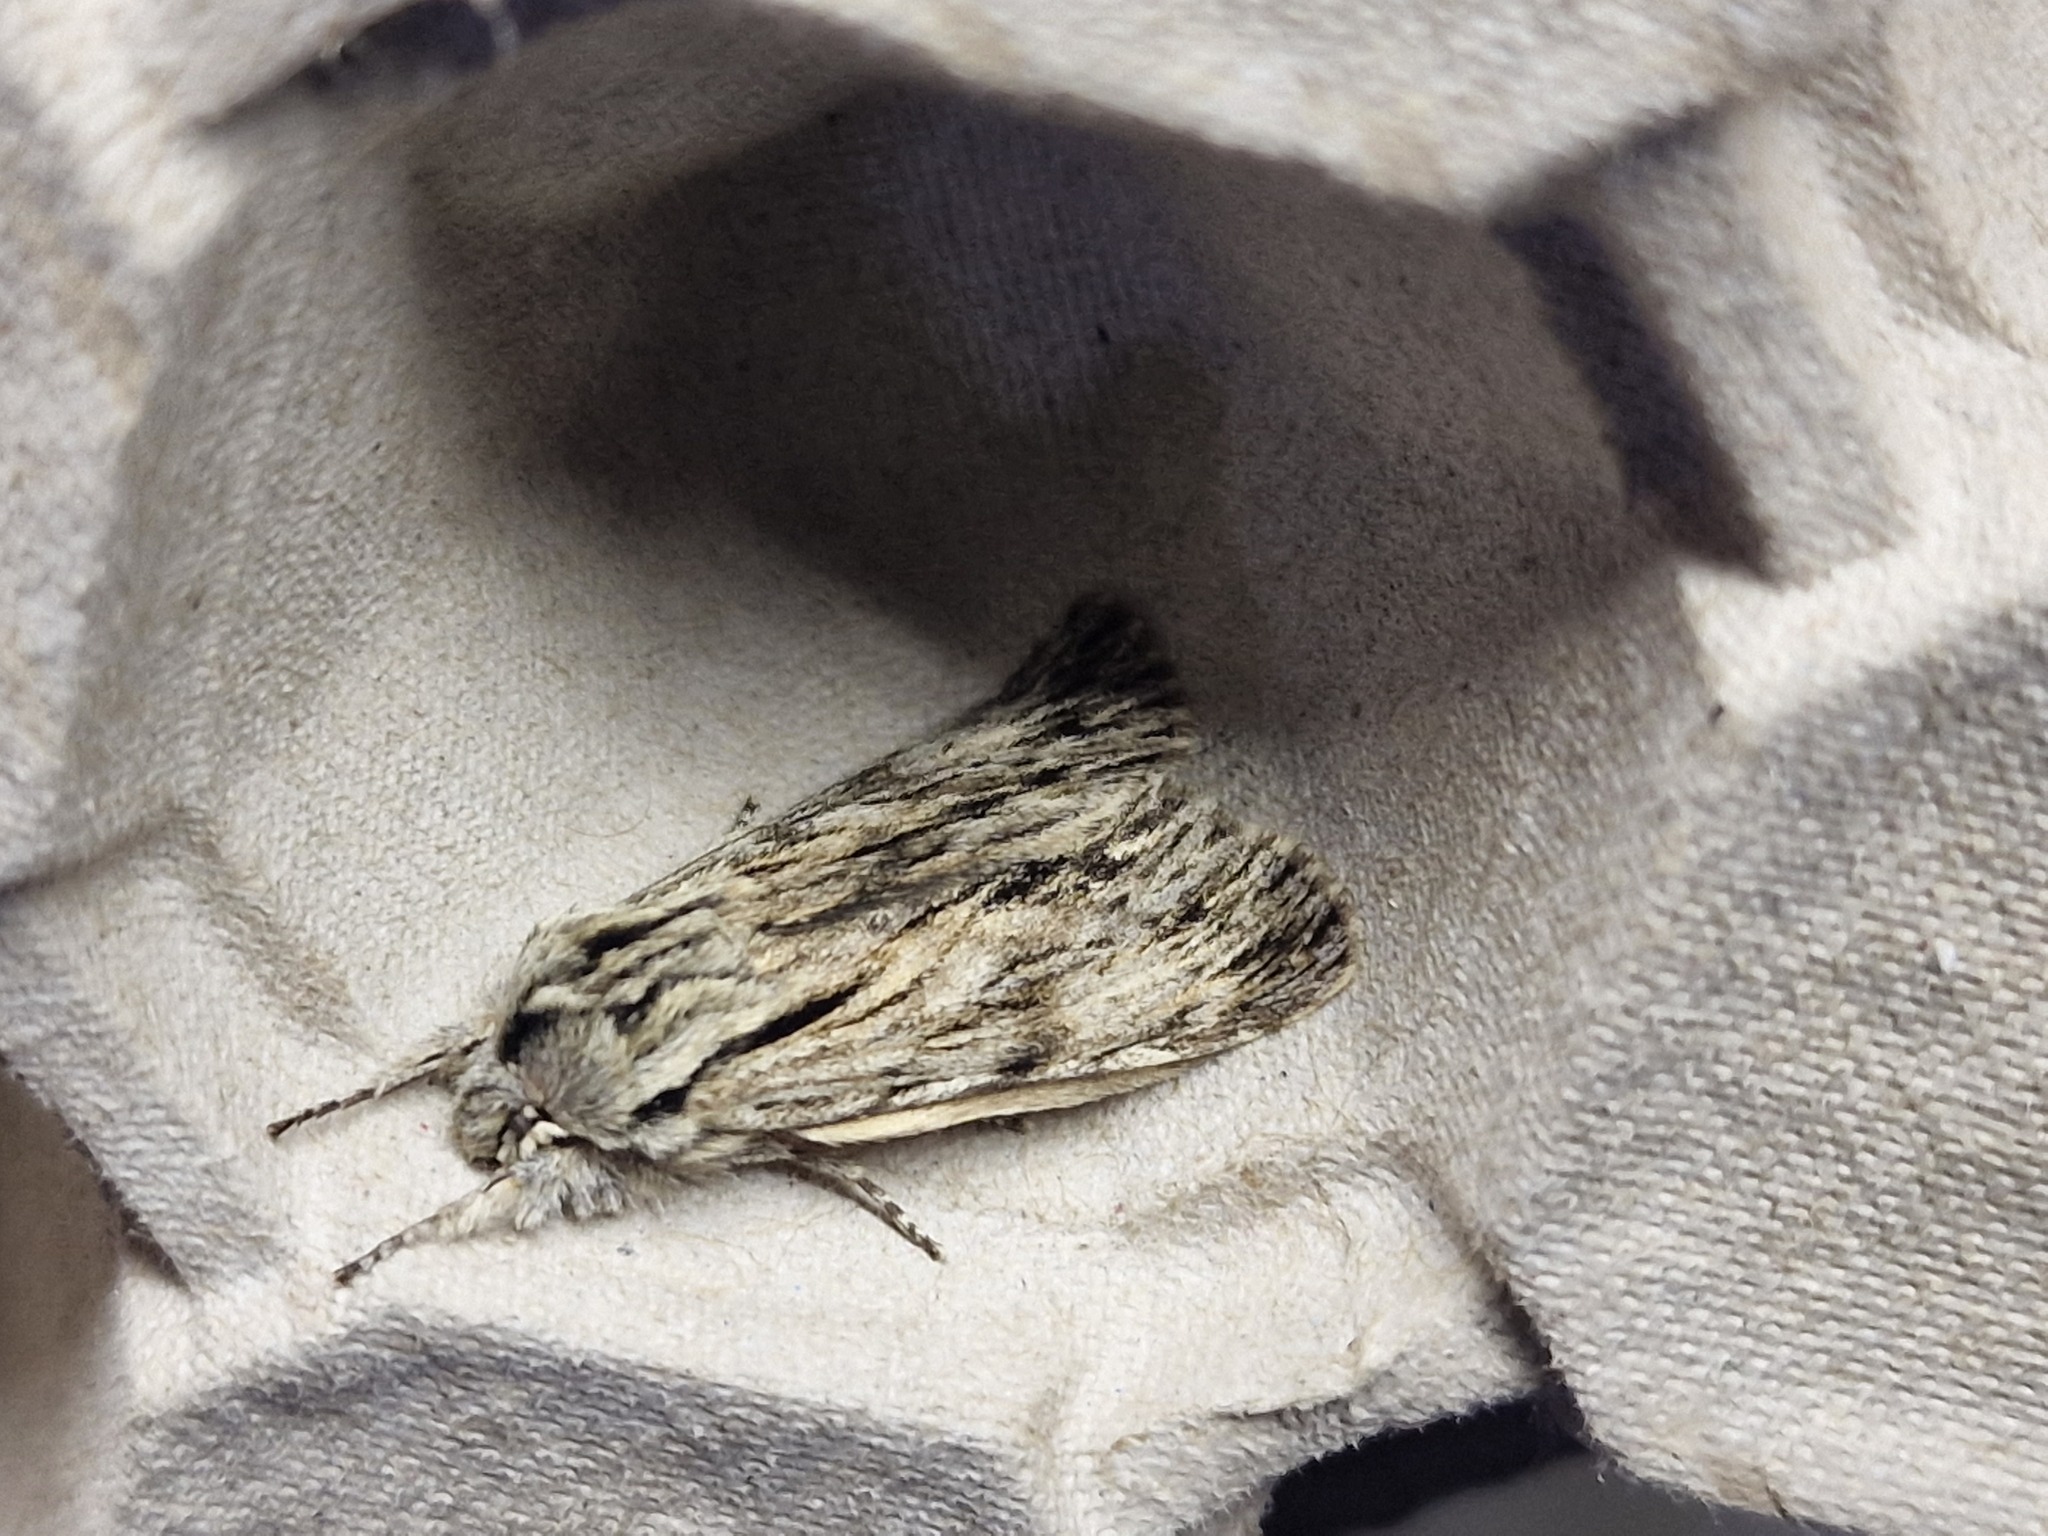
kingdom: Animalia
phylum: Arthropoda
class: Insecta
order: Lepidoptera
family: Noctuidae
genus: Asteroscopus
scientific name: Asteroscopus sphinx
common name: The sprawler
